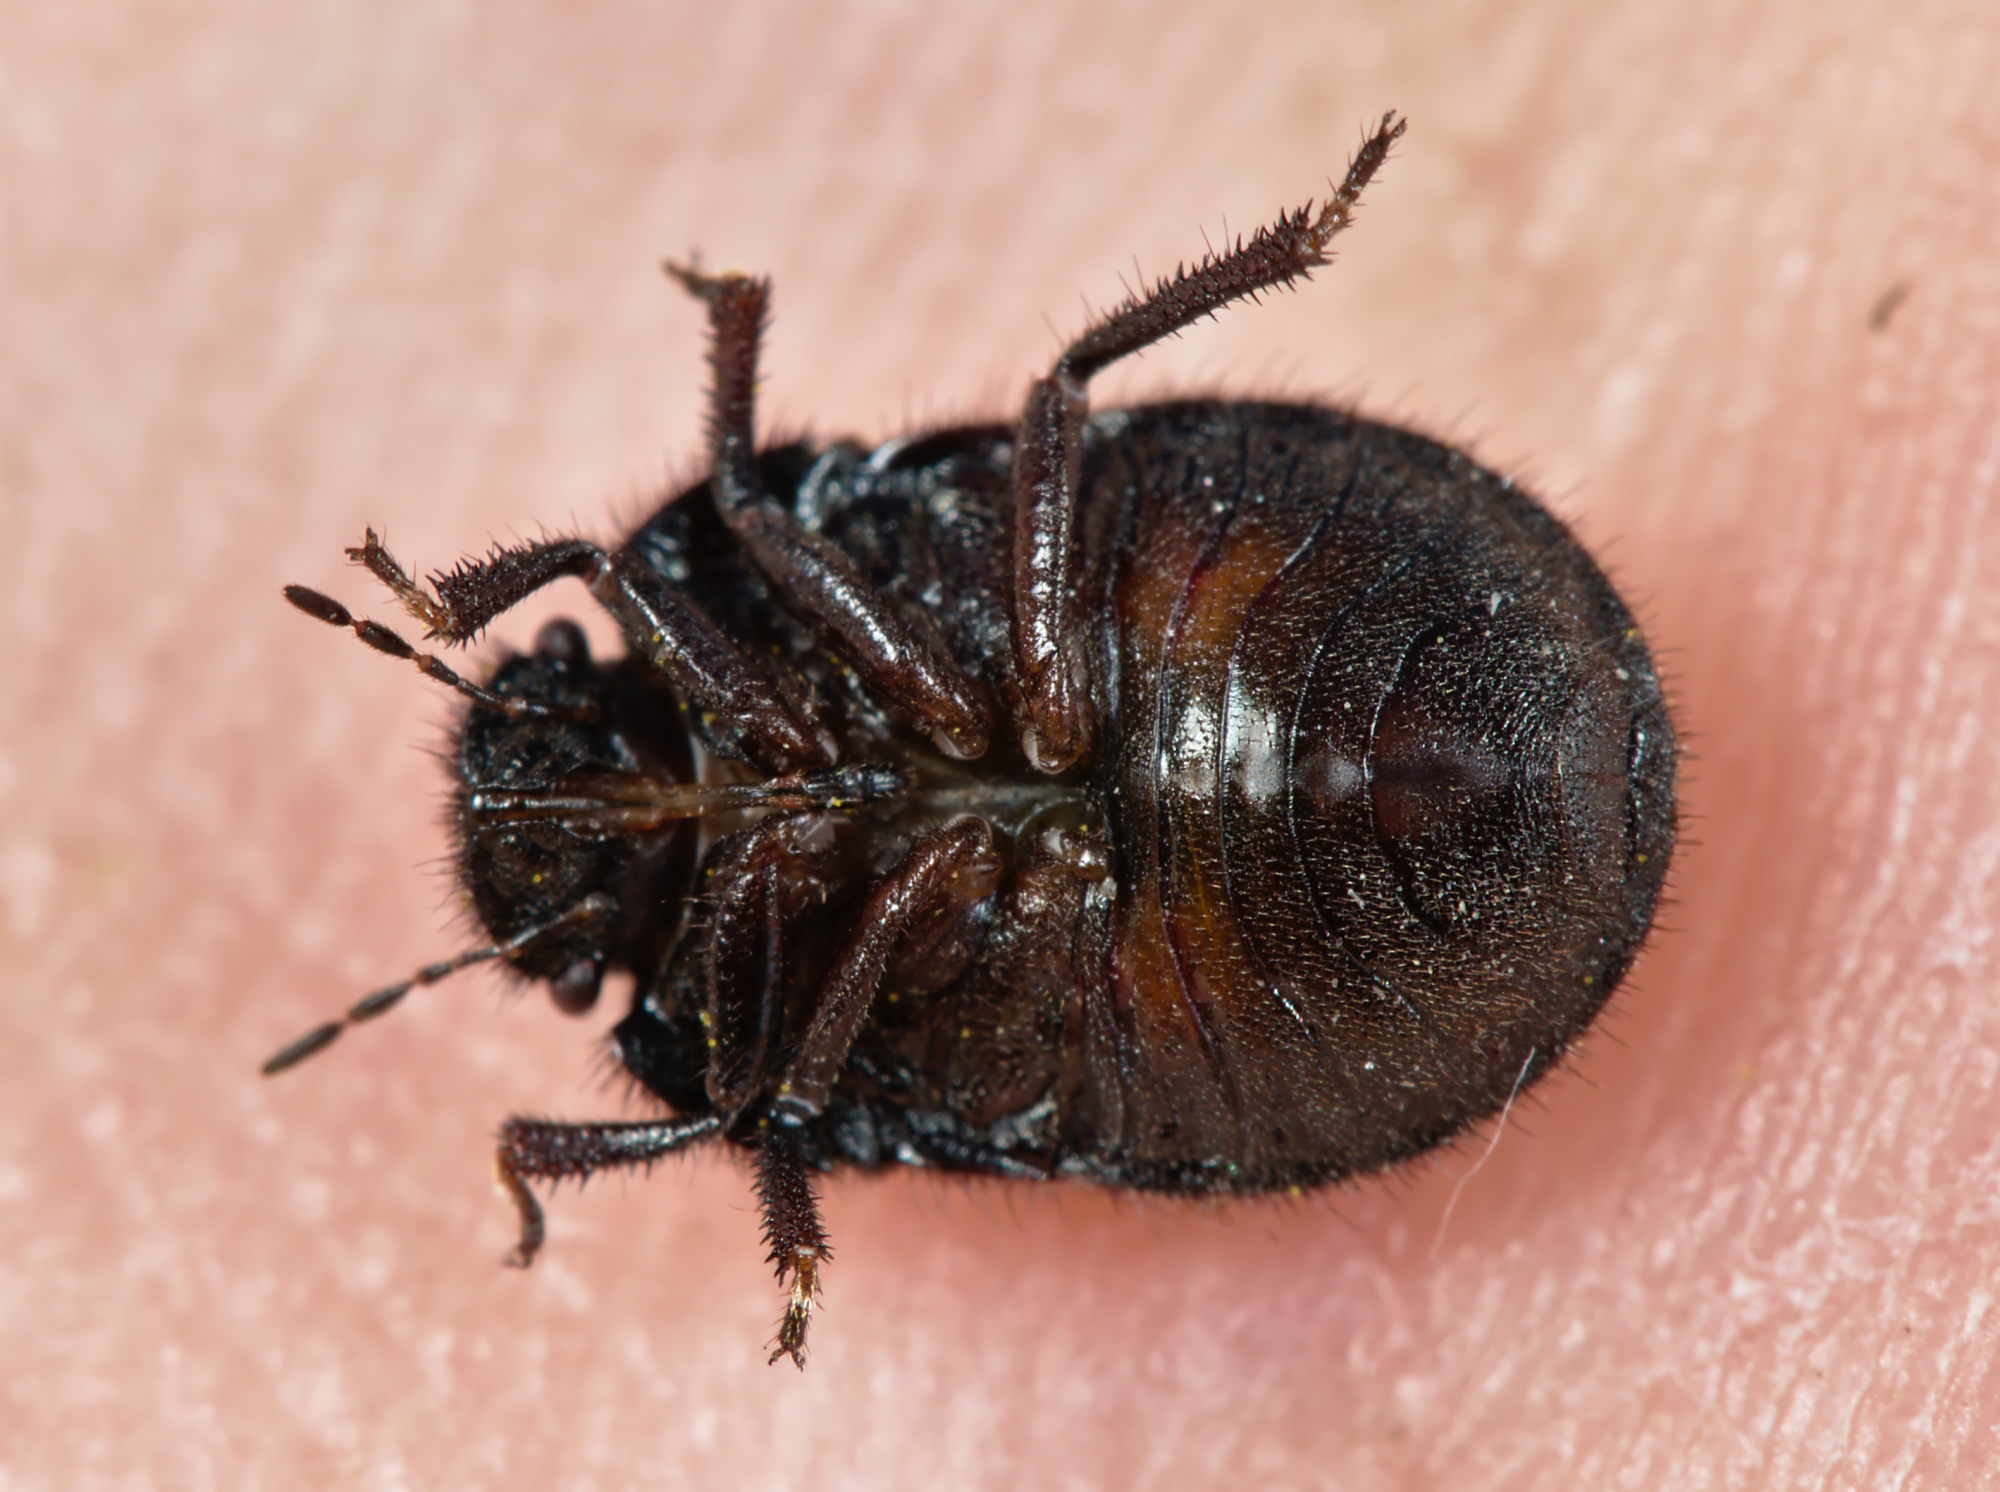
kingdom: Animalia
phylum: Arthropoda
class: Insecta
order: Hemiptera
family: Scutelleridae
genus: Odontoscelis
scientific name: Odontoscelis fuliginosa
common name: Greater streaked shieldbug
